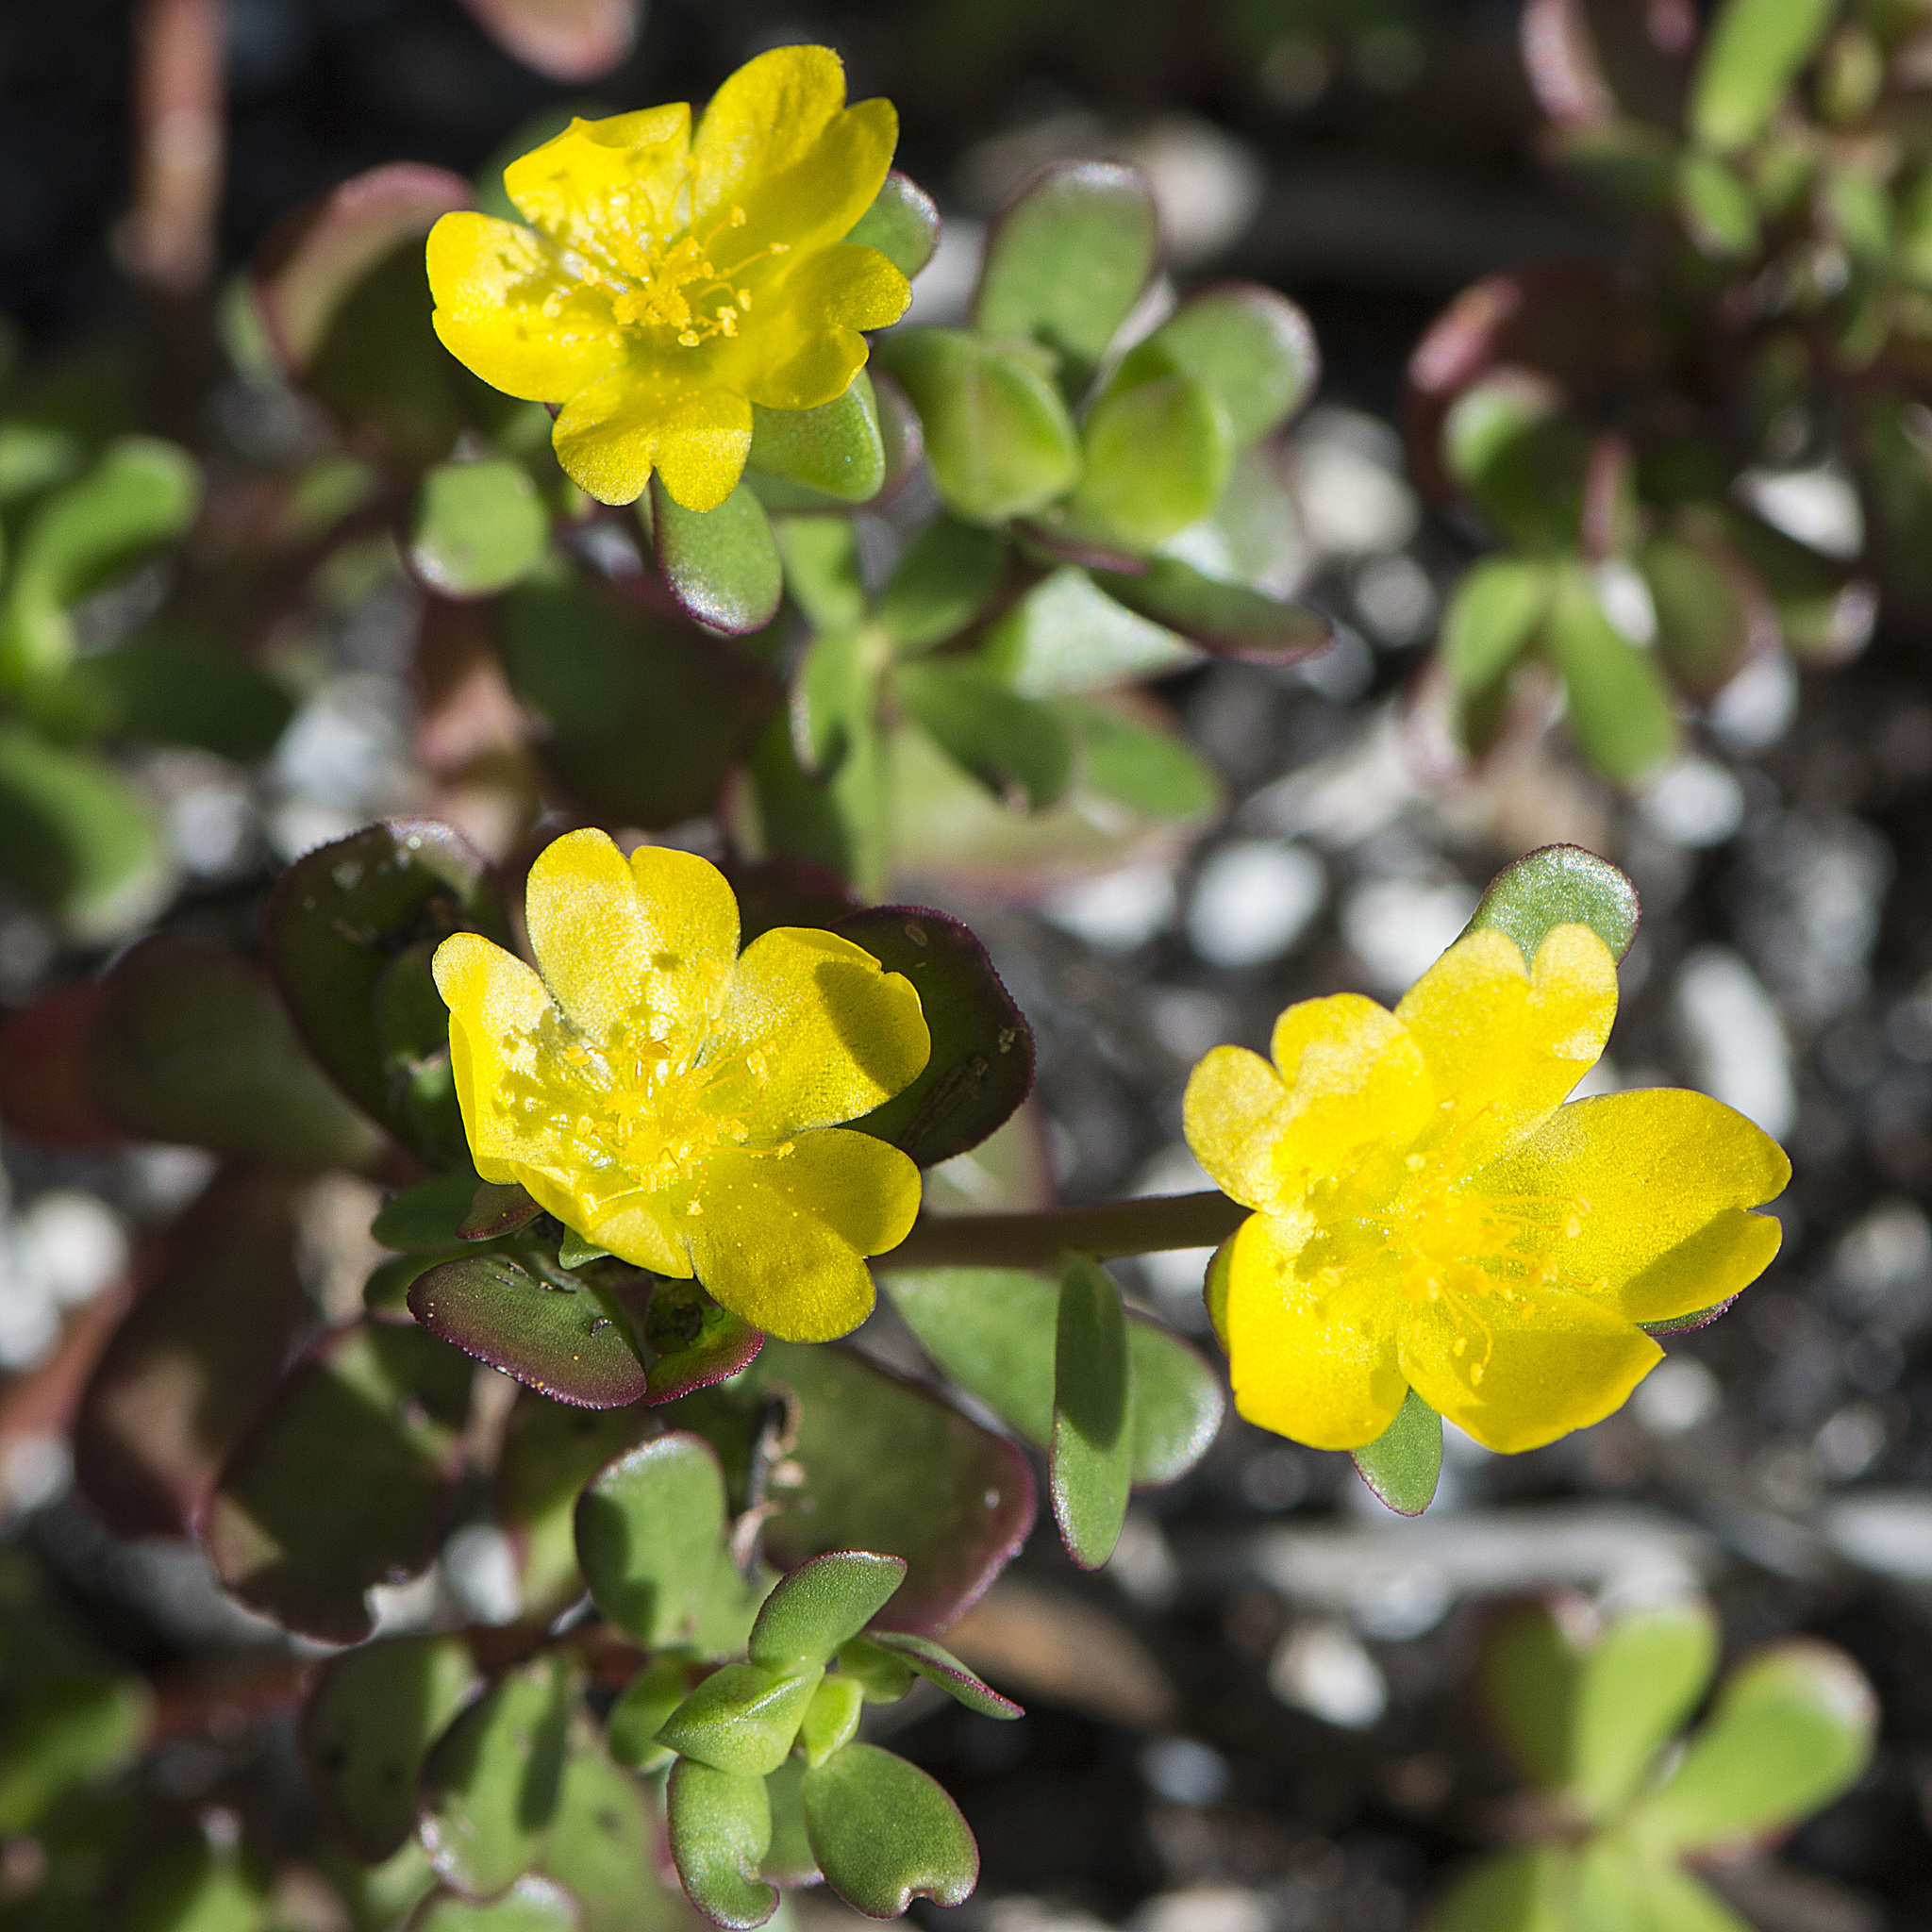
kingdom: Plantae
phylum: Tracheophyta
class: Magnoliopsida
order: Caryophyllales
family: Portulacaceae
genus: Portulaca
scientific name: Portulaca oleracea
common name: Common purslane
